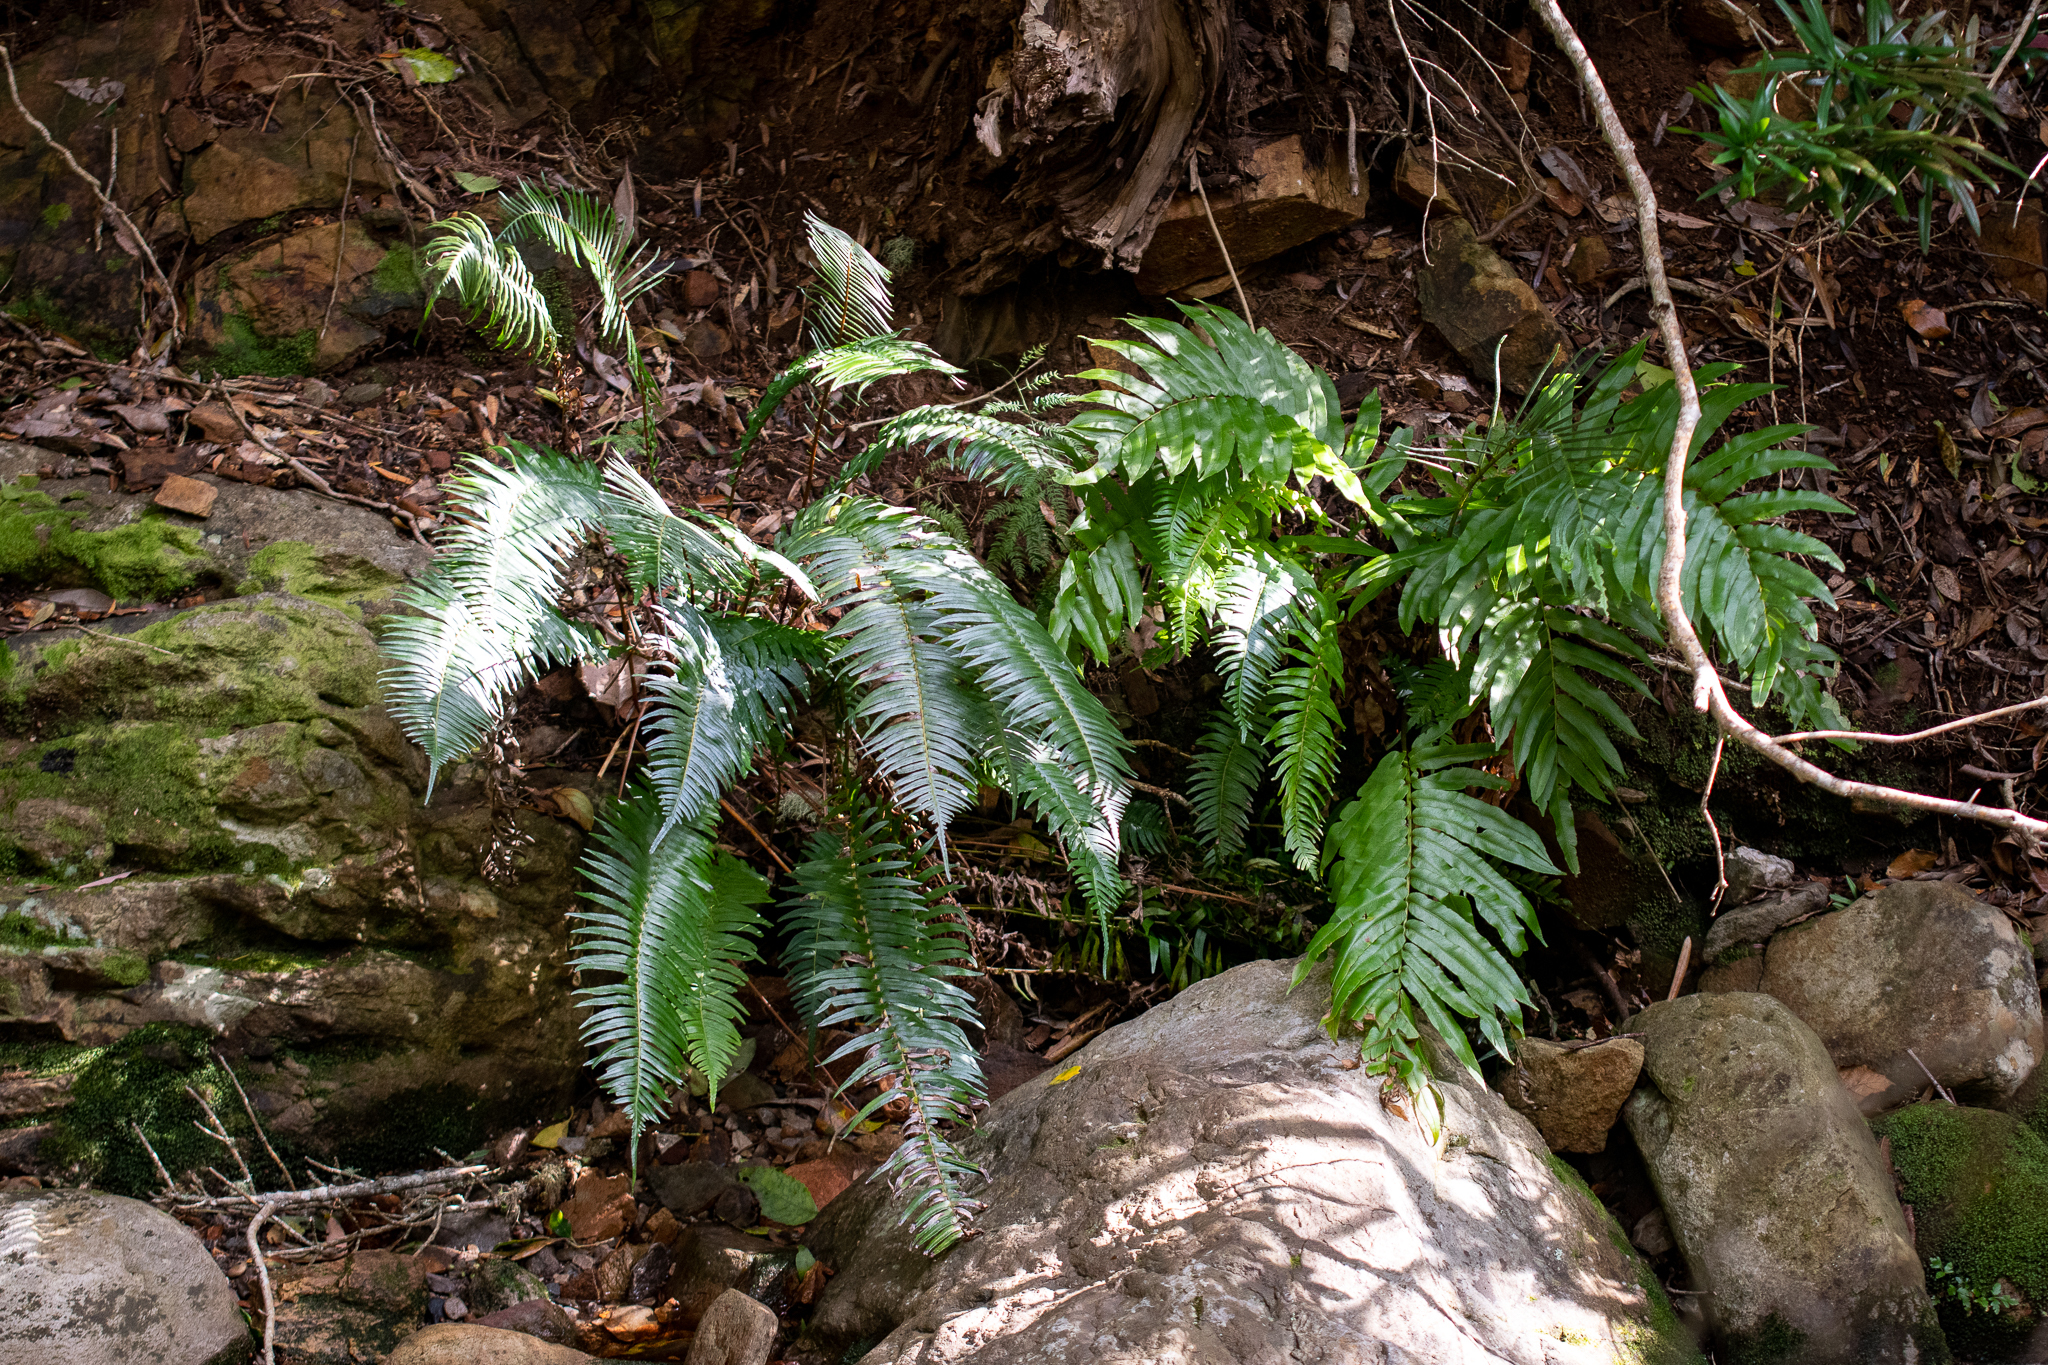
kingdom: Plantae
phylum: Tracheophyta
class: Polypodiopsida
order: Polypodiales
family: Blechnaceae
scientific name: Blechnaceae
